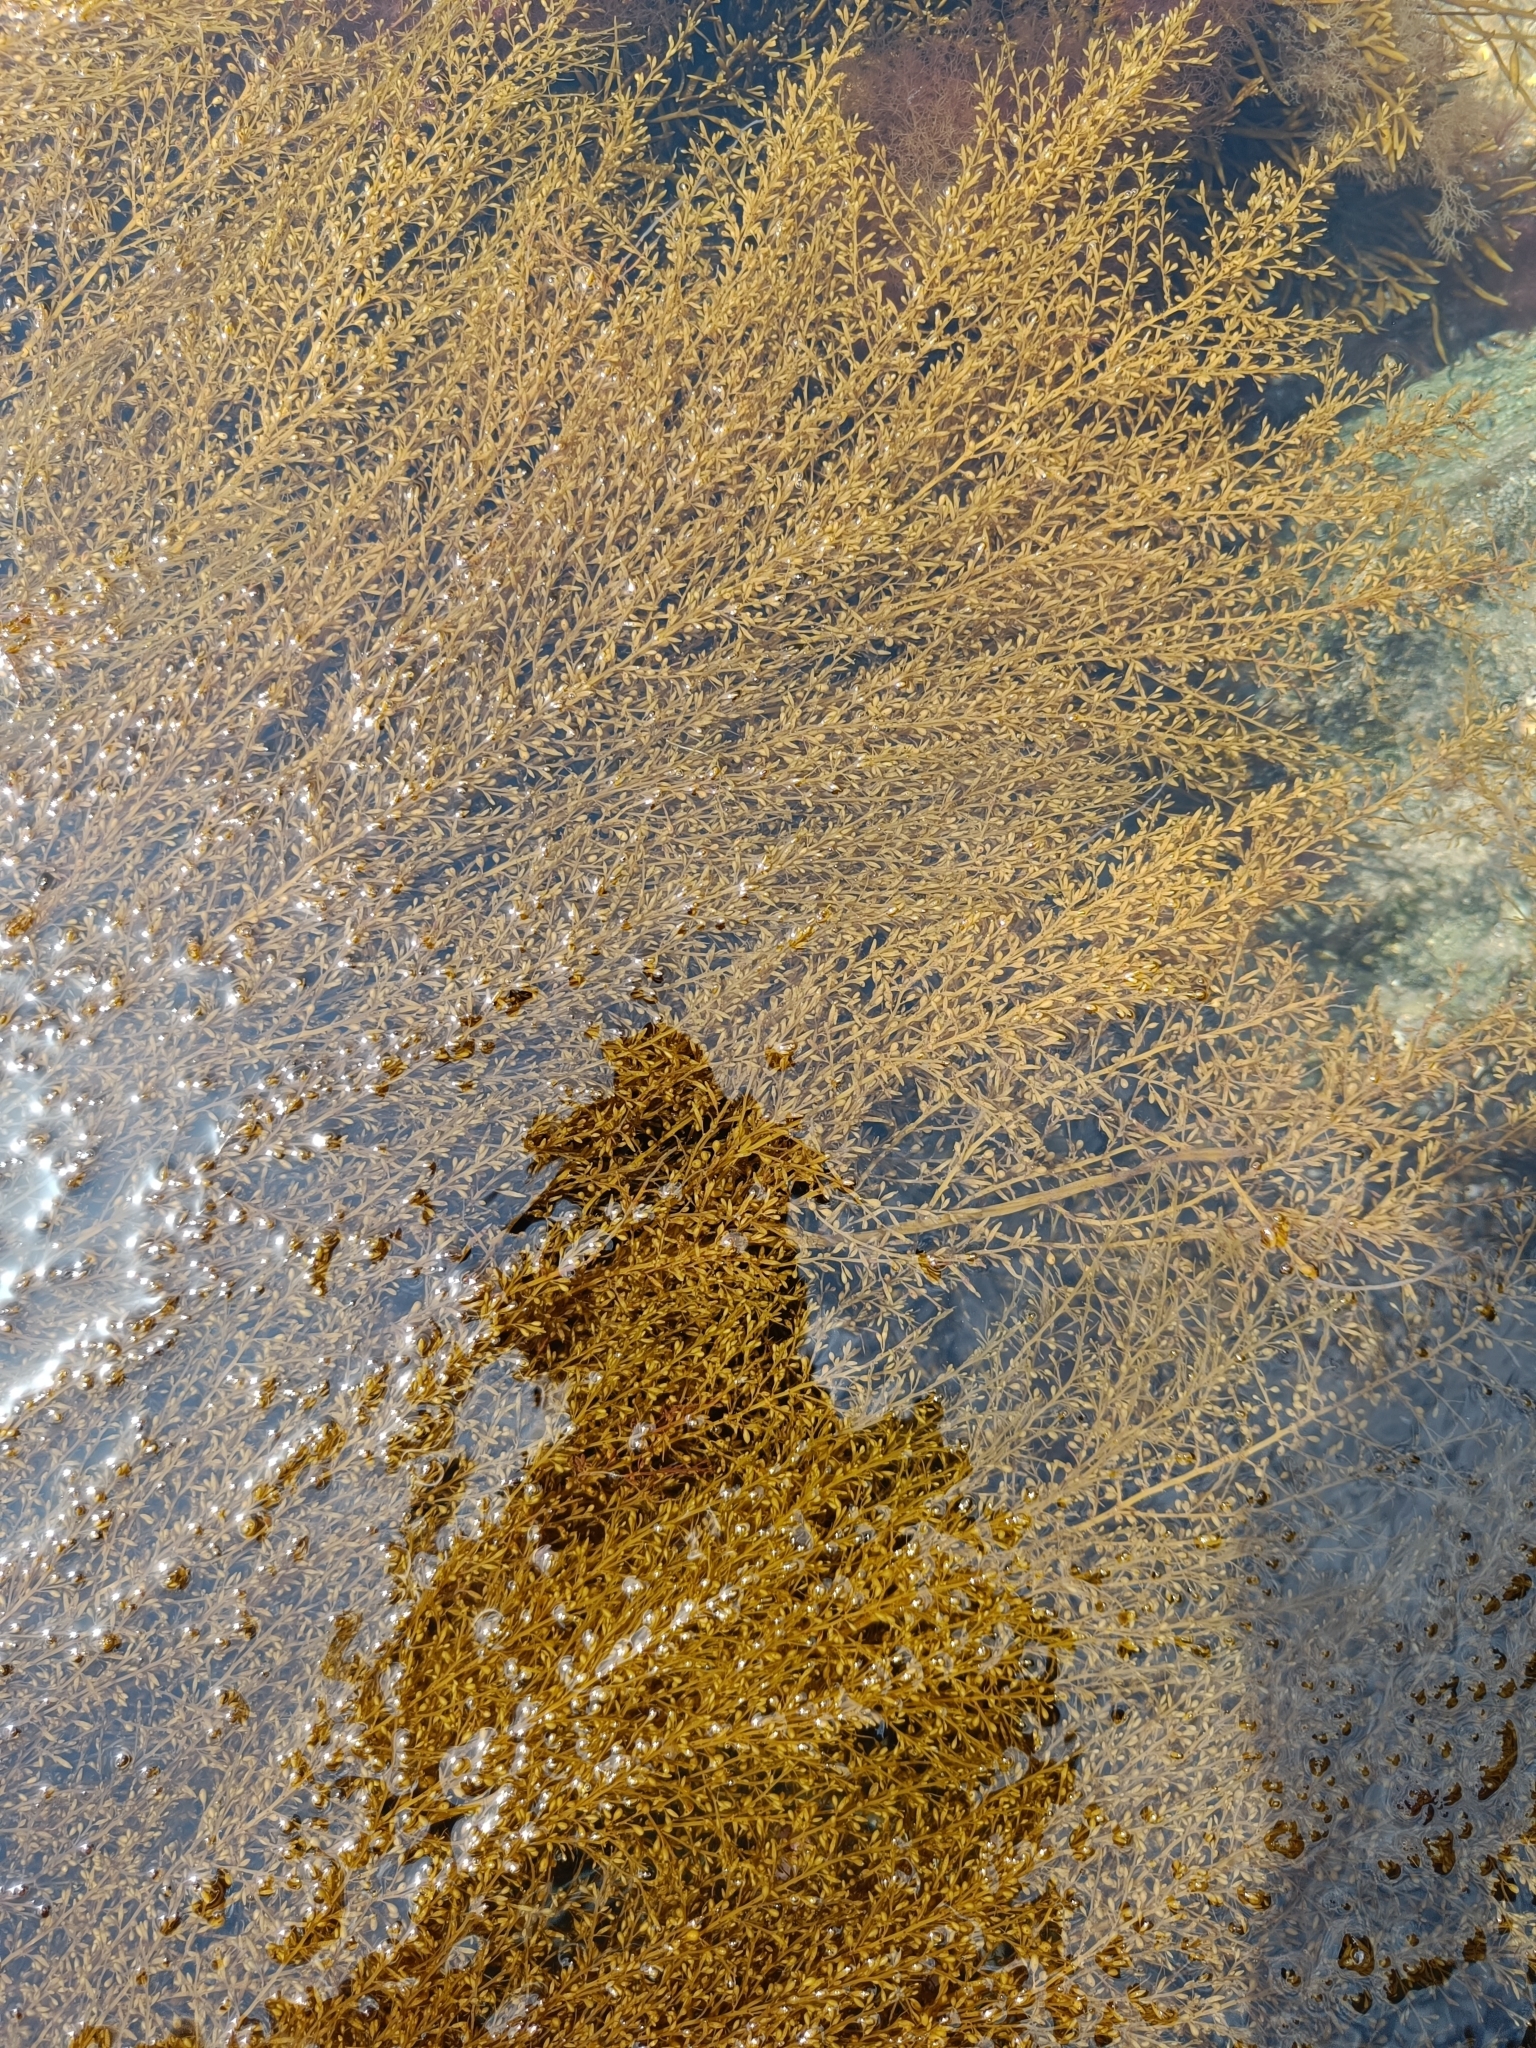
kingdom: Chromista
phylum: Ochrophyta
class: Phaeophyceae
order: Fucales
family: Sargassaceae
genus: Sargassum
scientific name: Sargassum muticum
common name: Japweed
